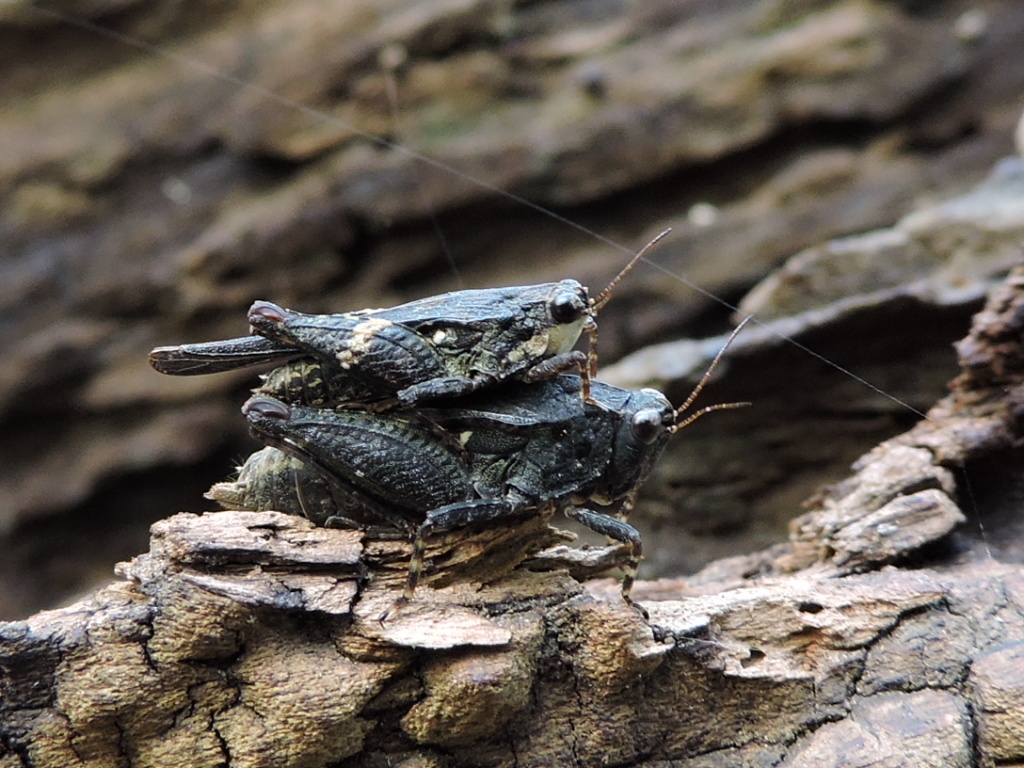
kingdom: Animalia
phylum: Arthropoda
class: Insecta
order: Orthoptera
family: Tetrigidae
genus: Tettigidea
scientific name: Tettigidea laterale
